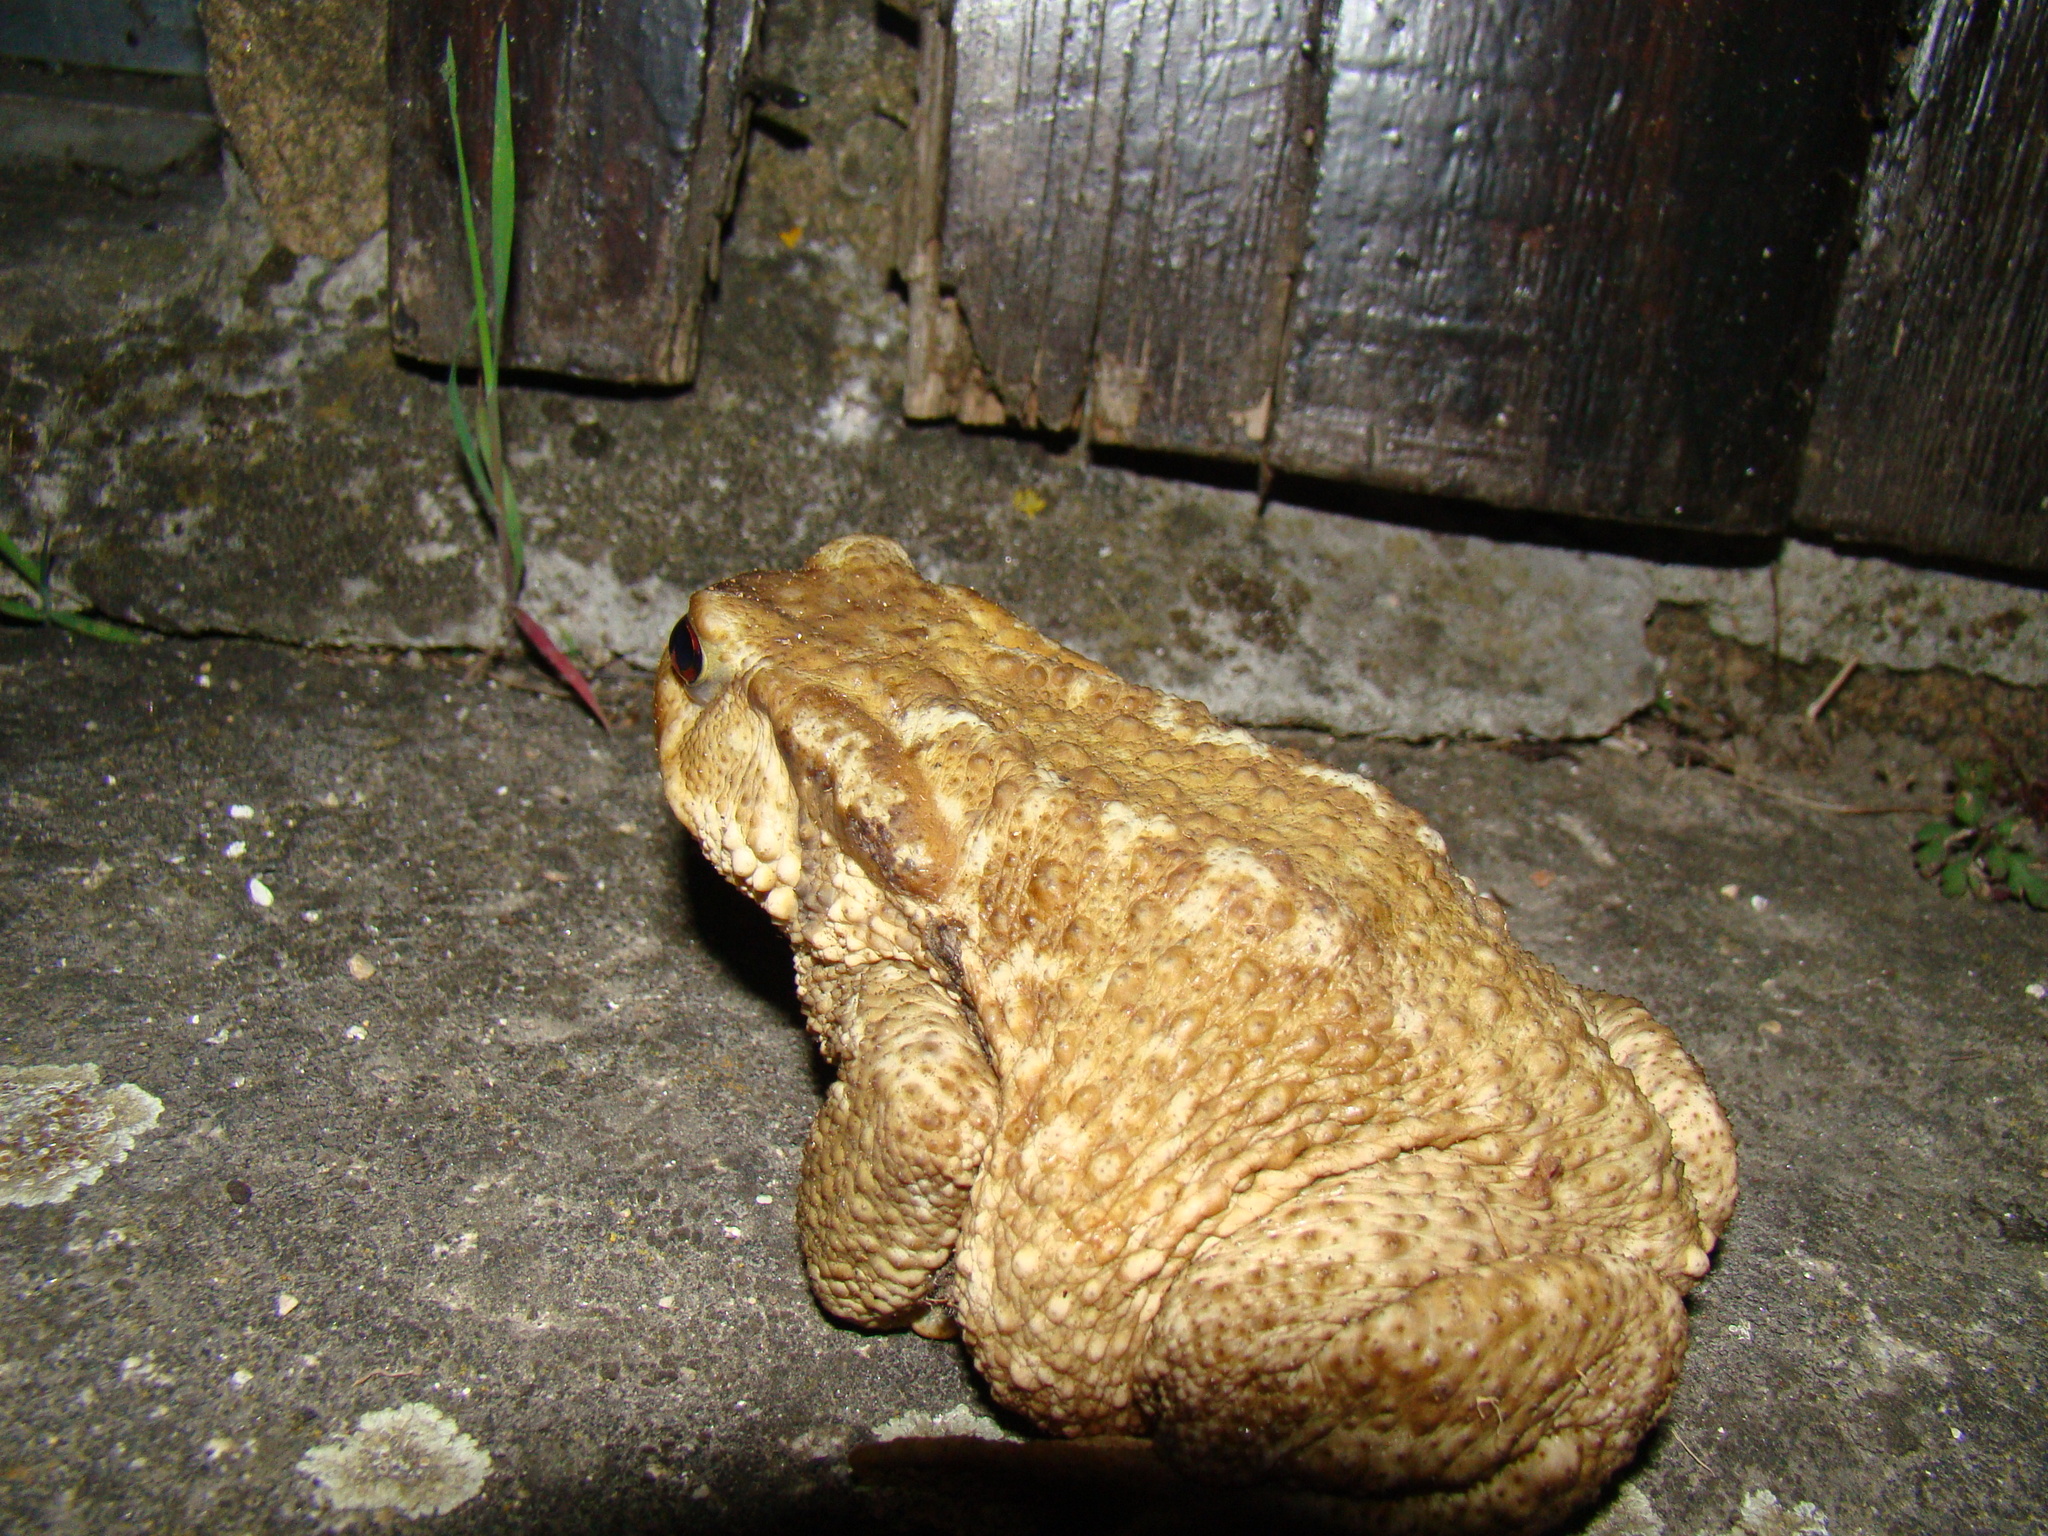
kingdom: Animalia
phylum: Chordata
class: Amphibia
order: Anura
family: Bufonidae
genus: Bufo
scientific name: Bufo spinosus
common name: Western common toad
